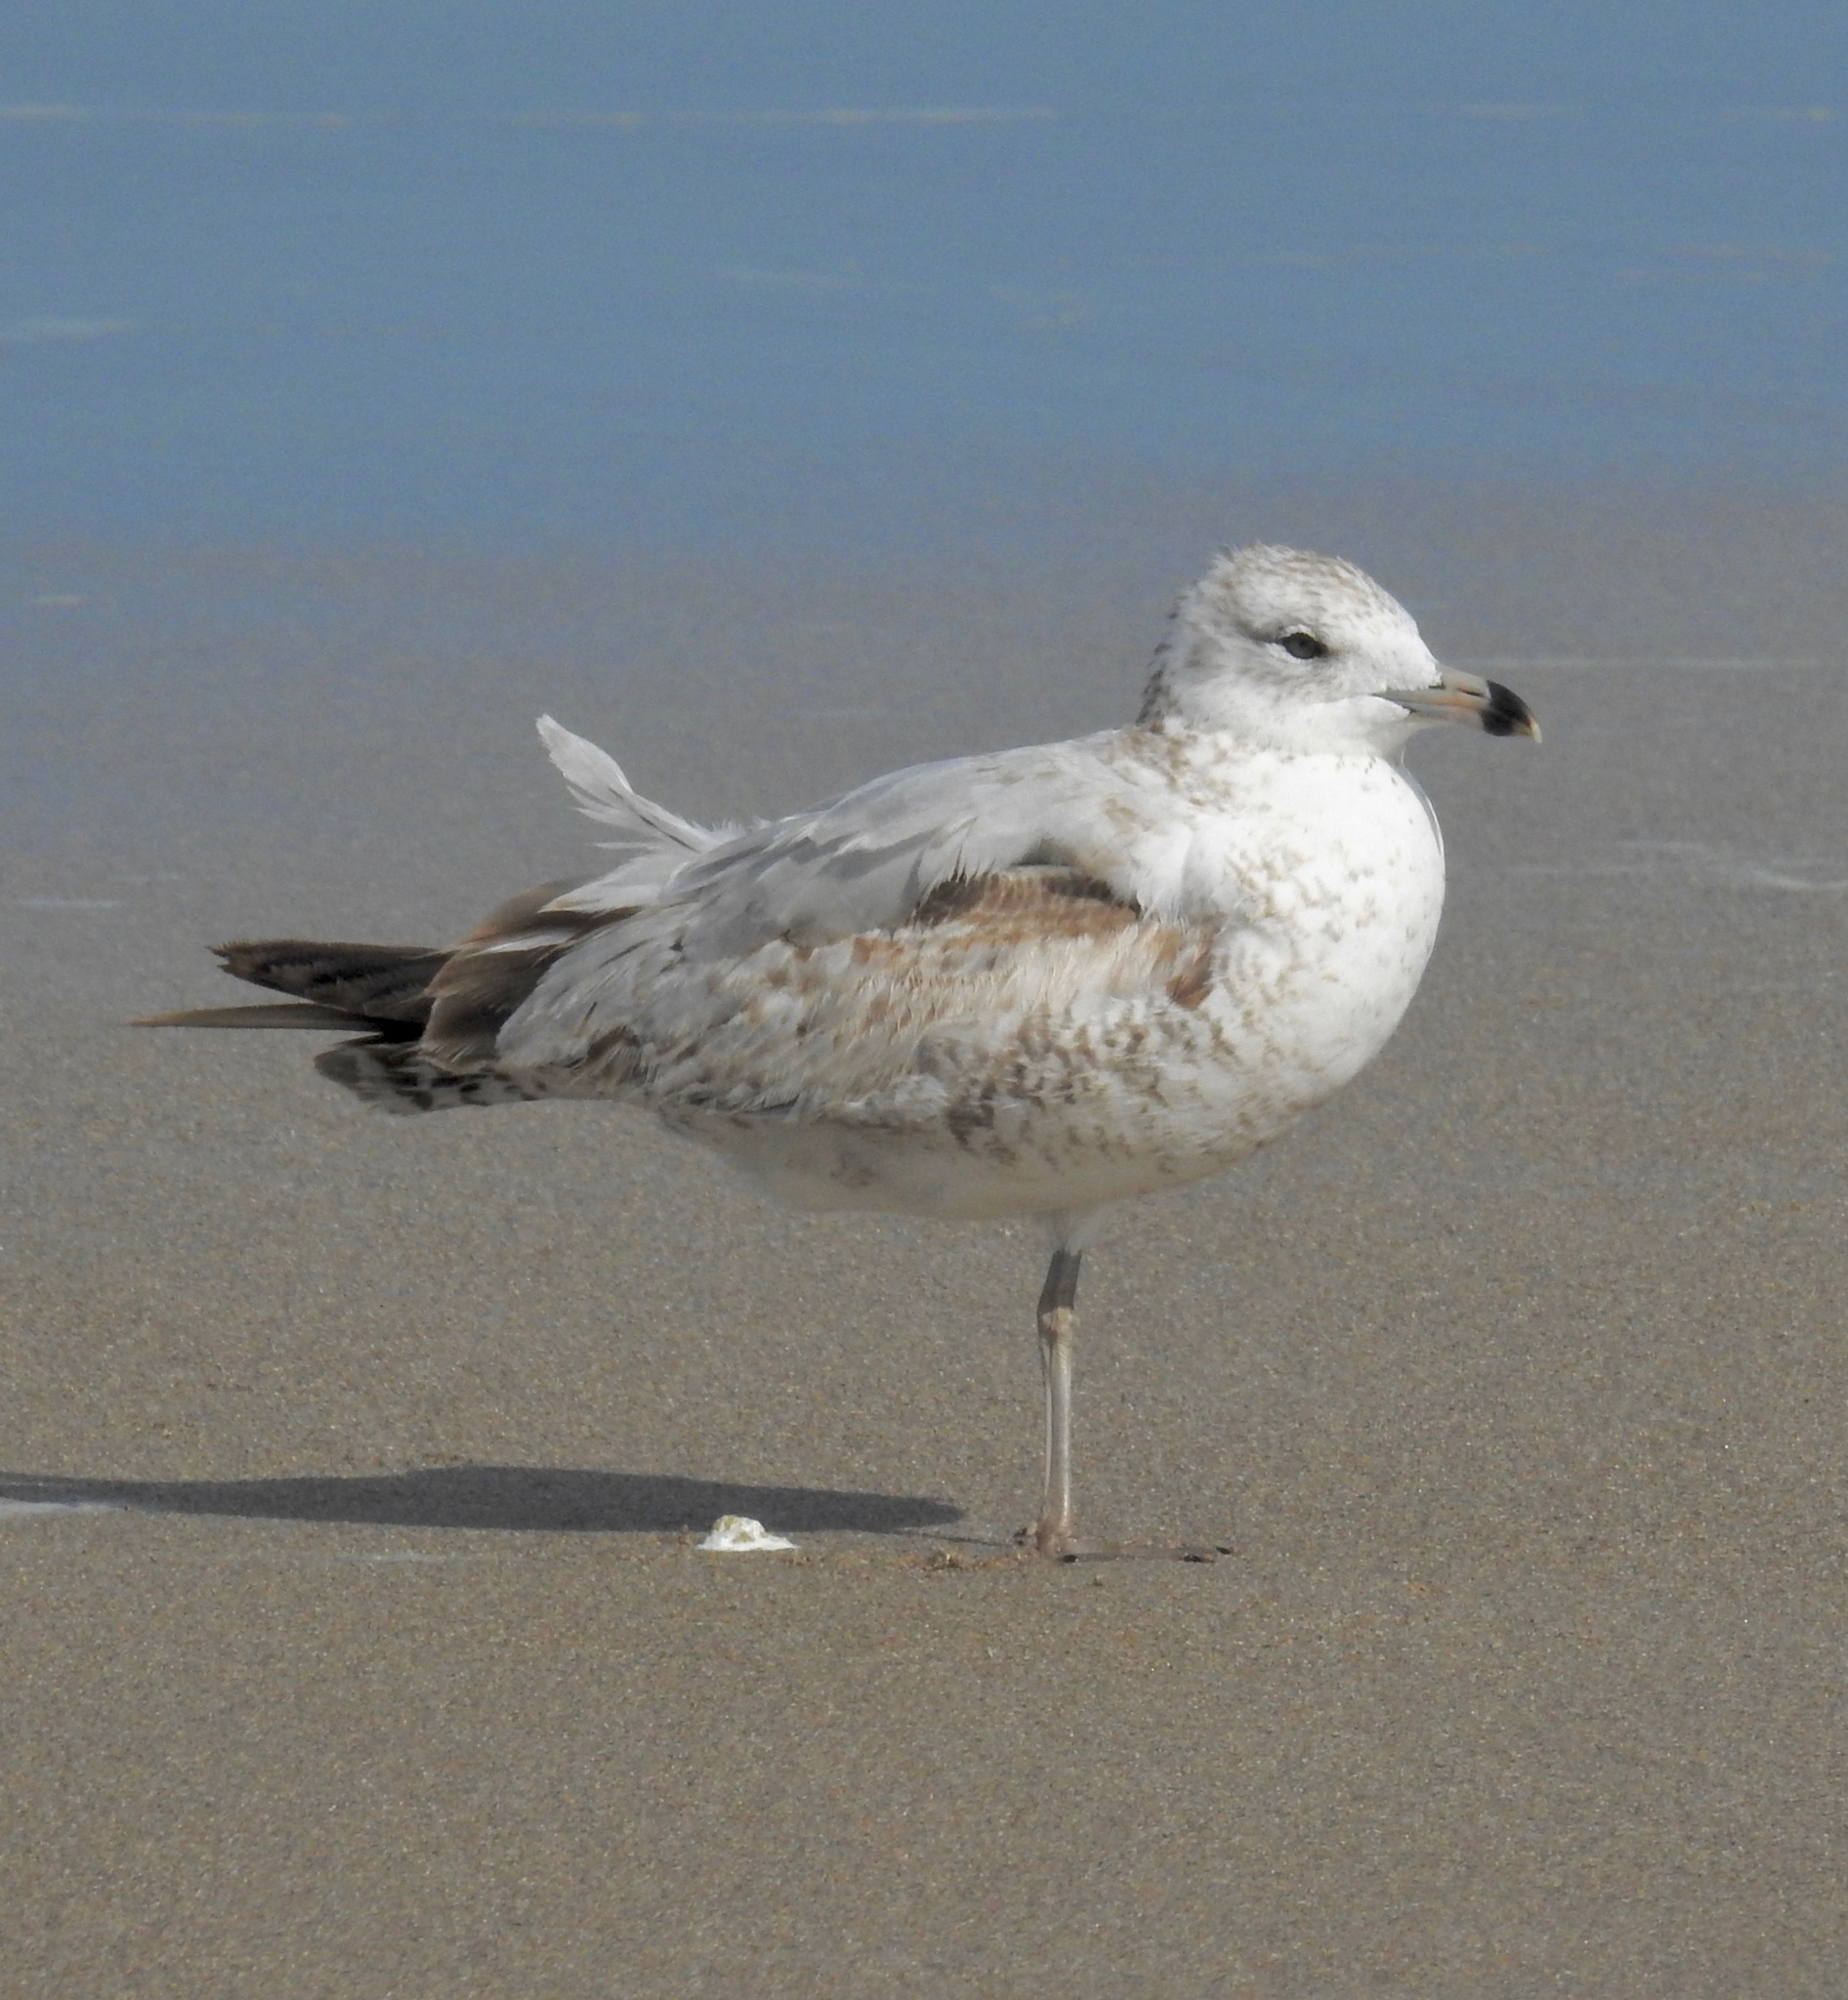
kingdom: Animalia
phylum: Chordata
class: Aves
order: Charadriiformes
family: Laridae
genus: Larus
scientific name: Larus delawarensis
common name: Ring-billed gull
